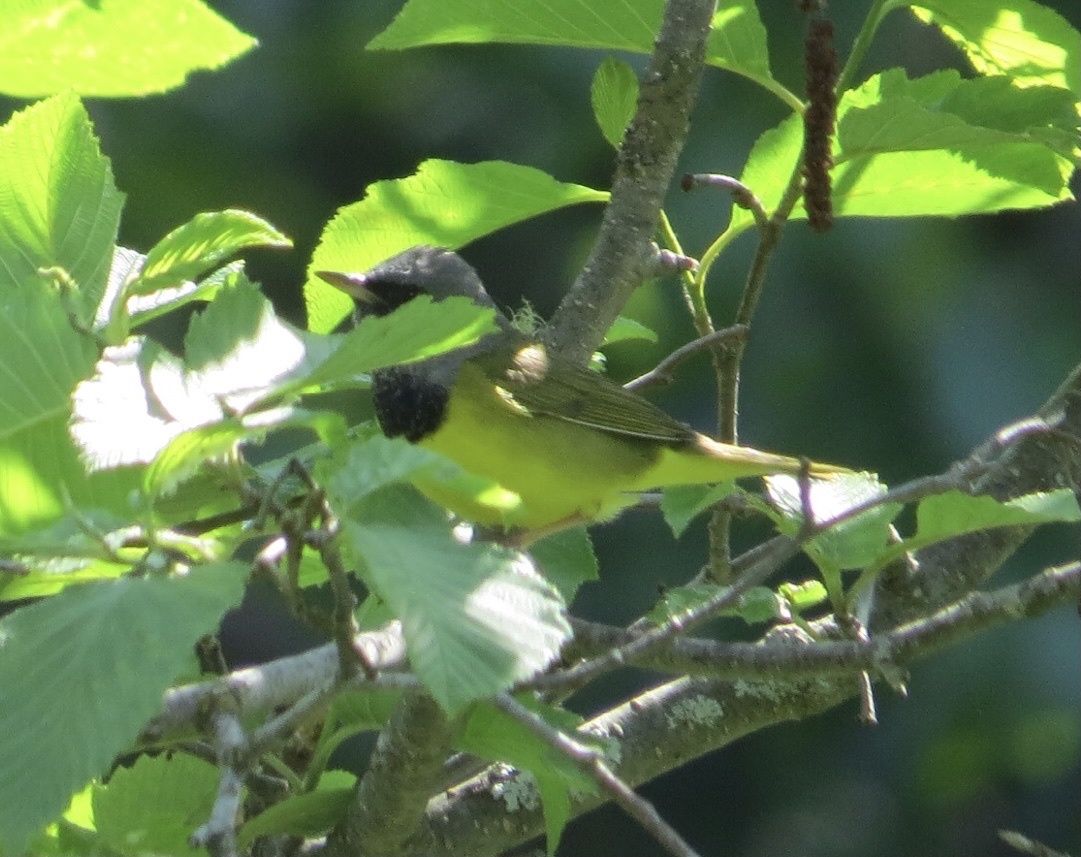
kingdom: Animalia
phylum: Chordata
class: Aves
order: Passeriformes
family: Parulidae
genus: Geothlypis
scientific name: Geothlypis philadelphia
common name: Mourning warbler
